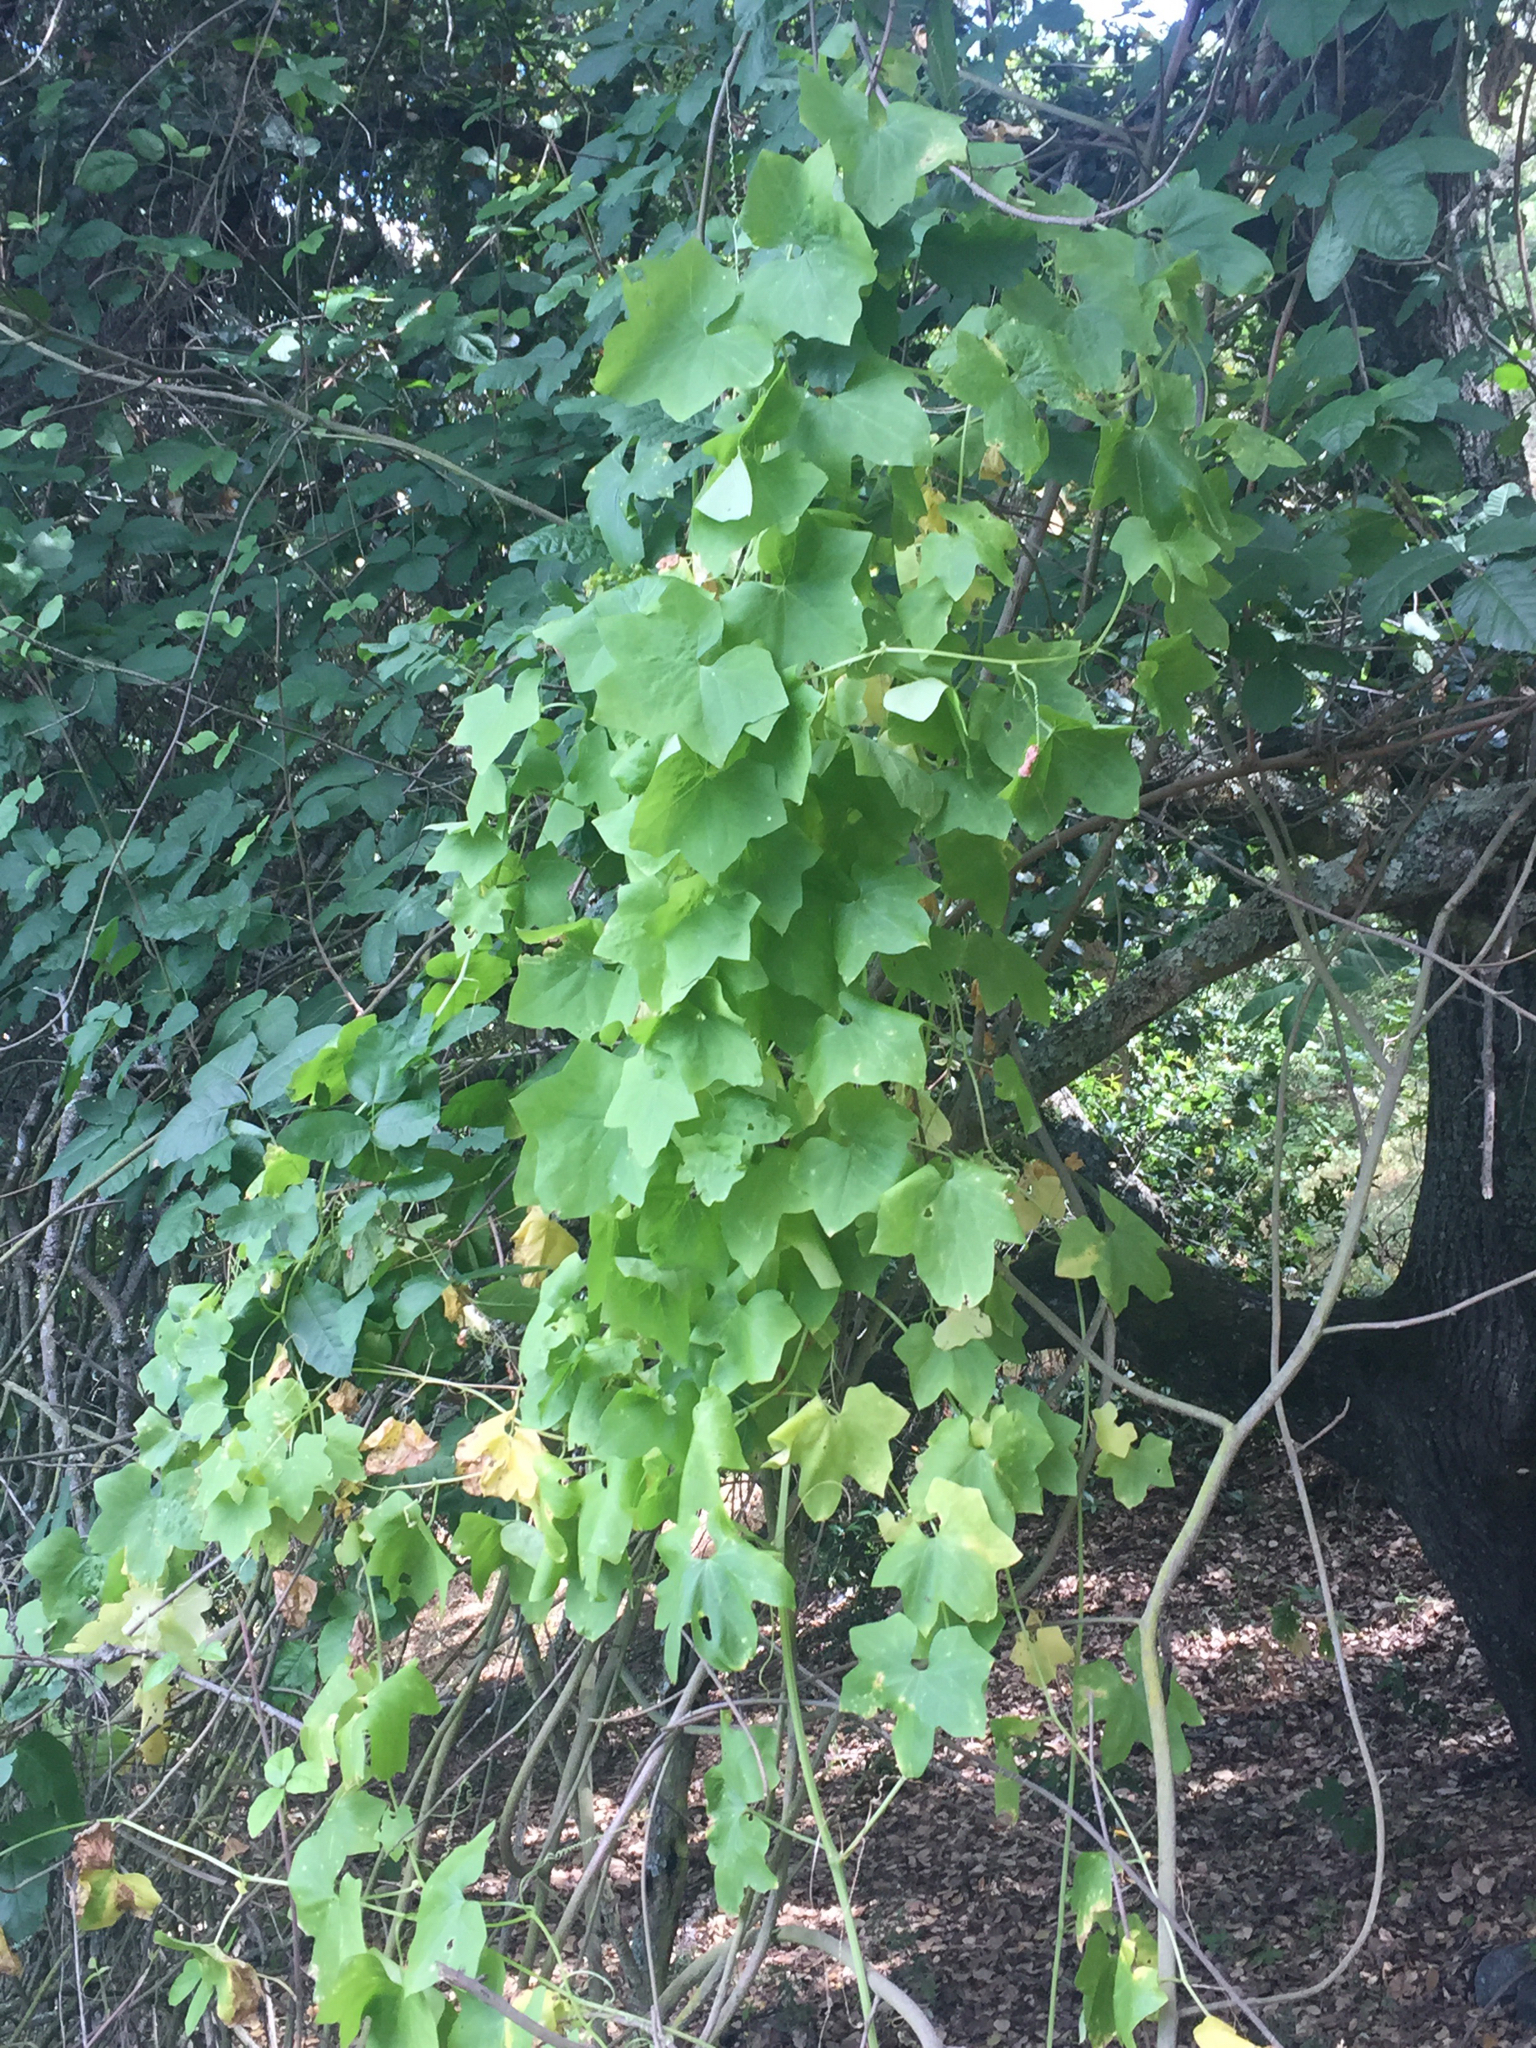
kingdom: Plantae
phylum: Tracheophyta
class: Magnoliopsida
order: Cucurbitales
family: Cucurbitaceae
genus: Marah
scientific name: Marah fabacea
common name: California manroot
